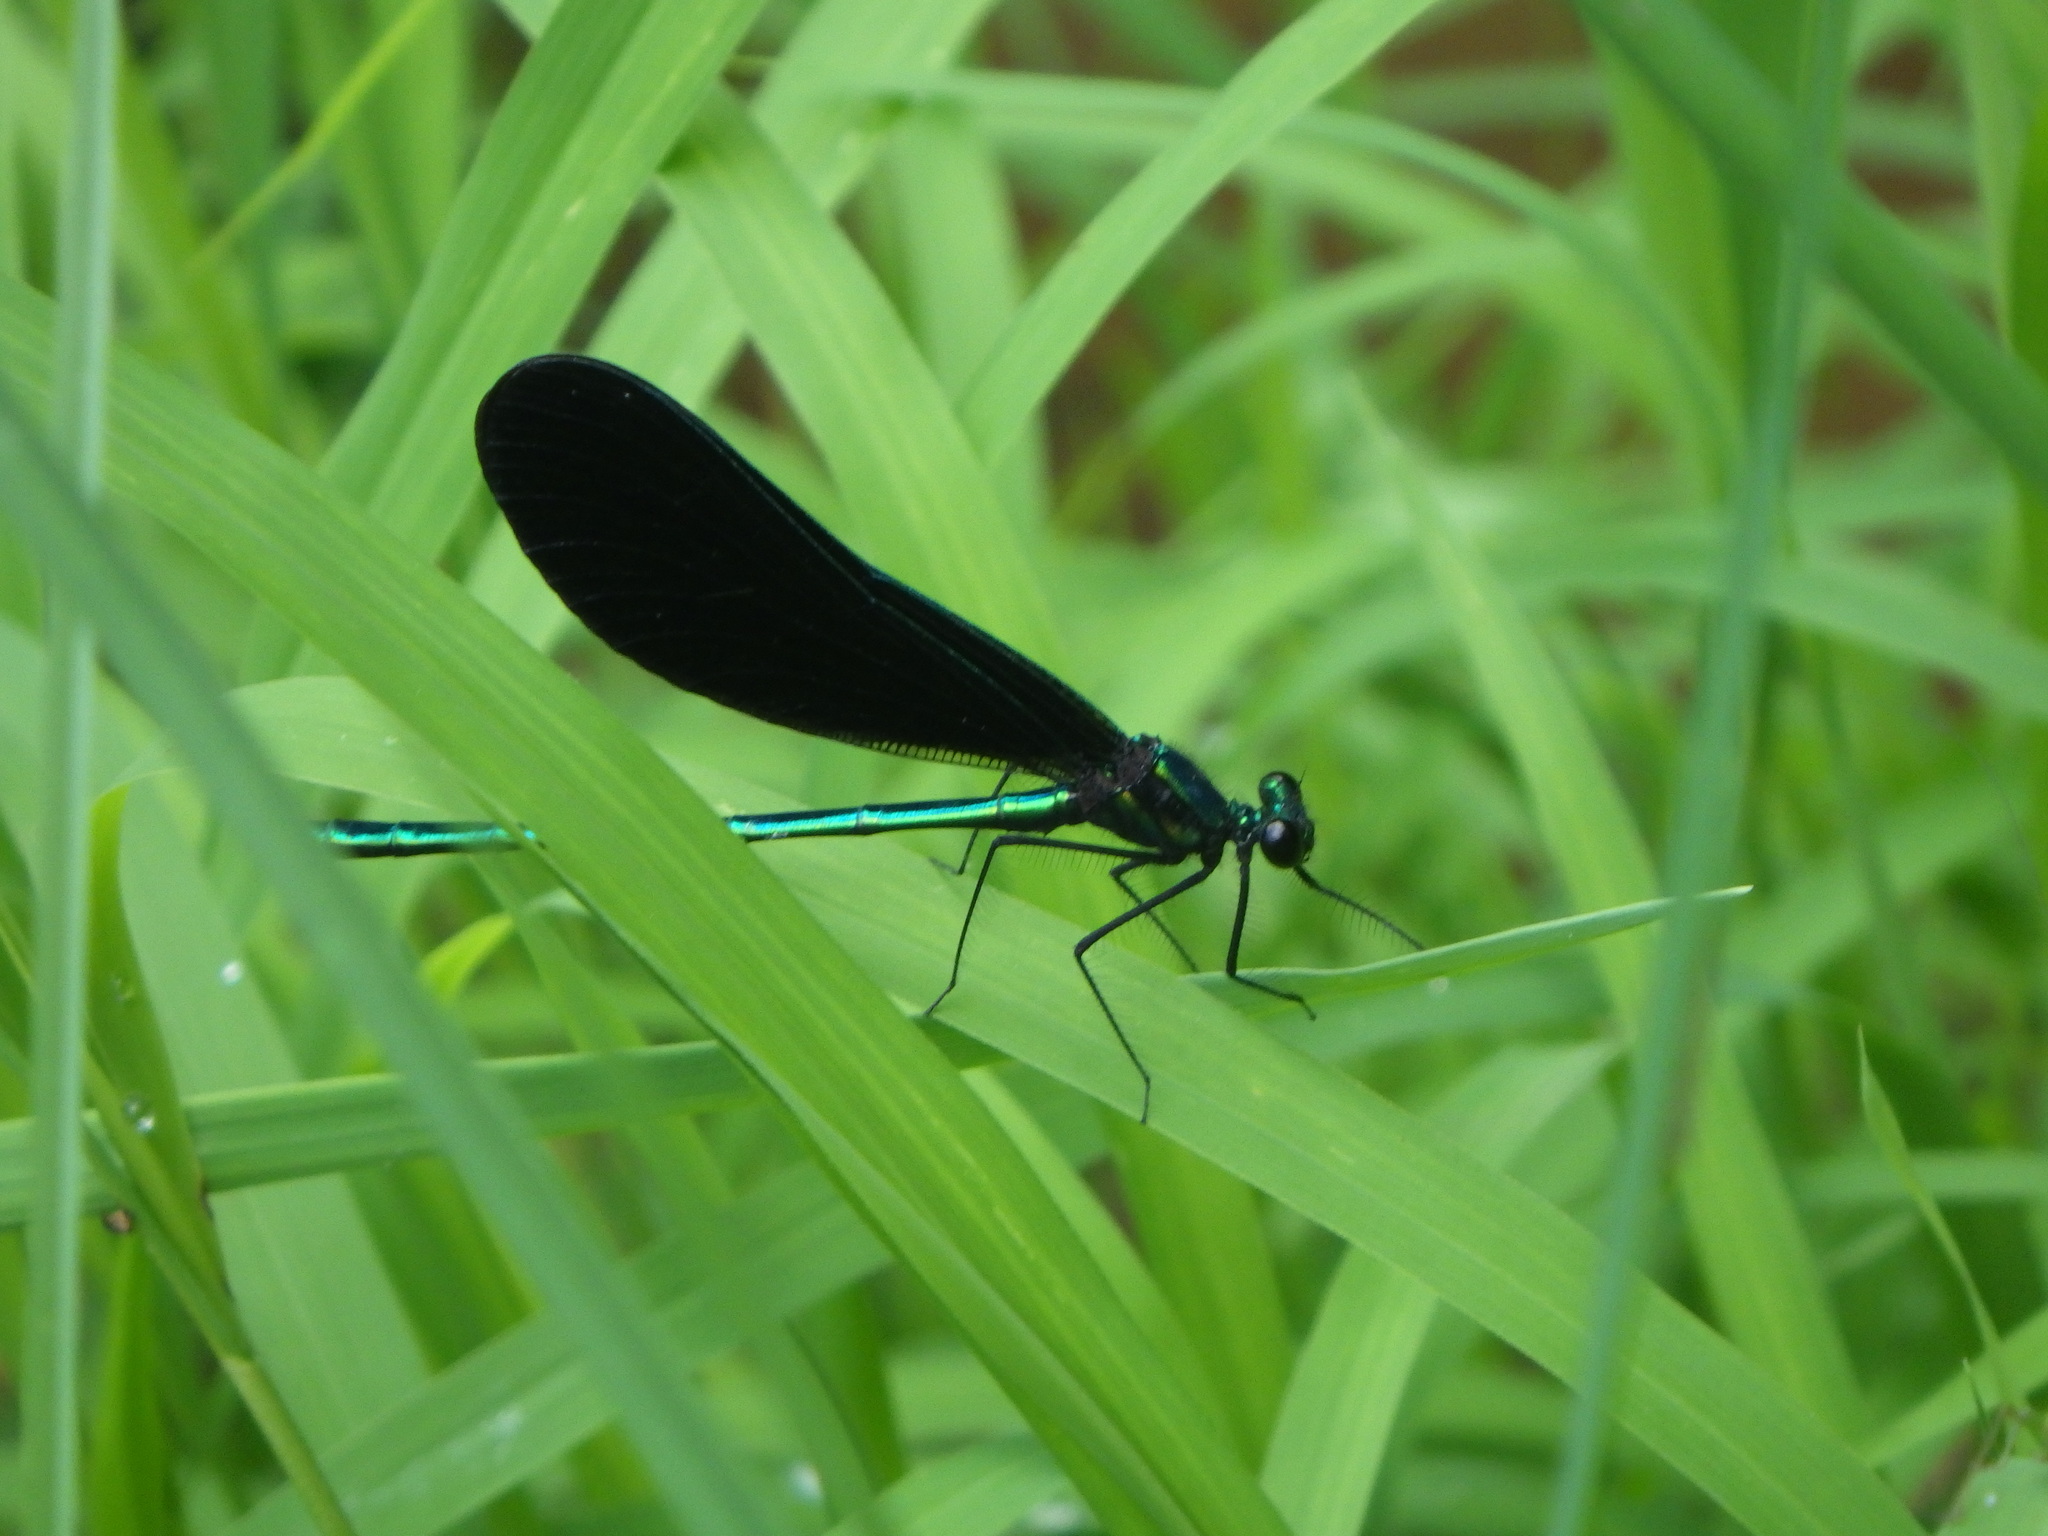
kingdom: Animalia
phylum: Arthropoda
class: Insecta
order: Odonata
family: Calopterygidae
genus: Calopteryx
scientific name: Calopteryx maculata
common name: Ebony jewelwing
